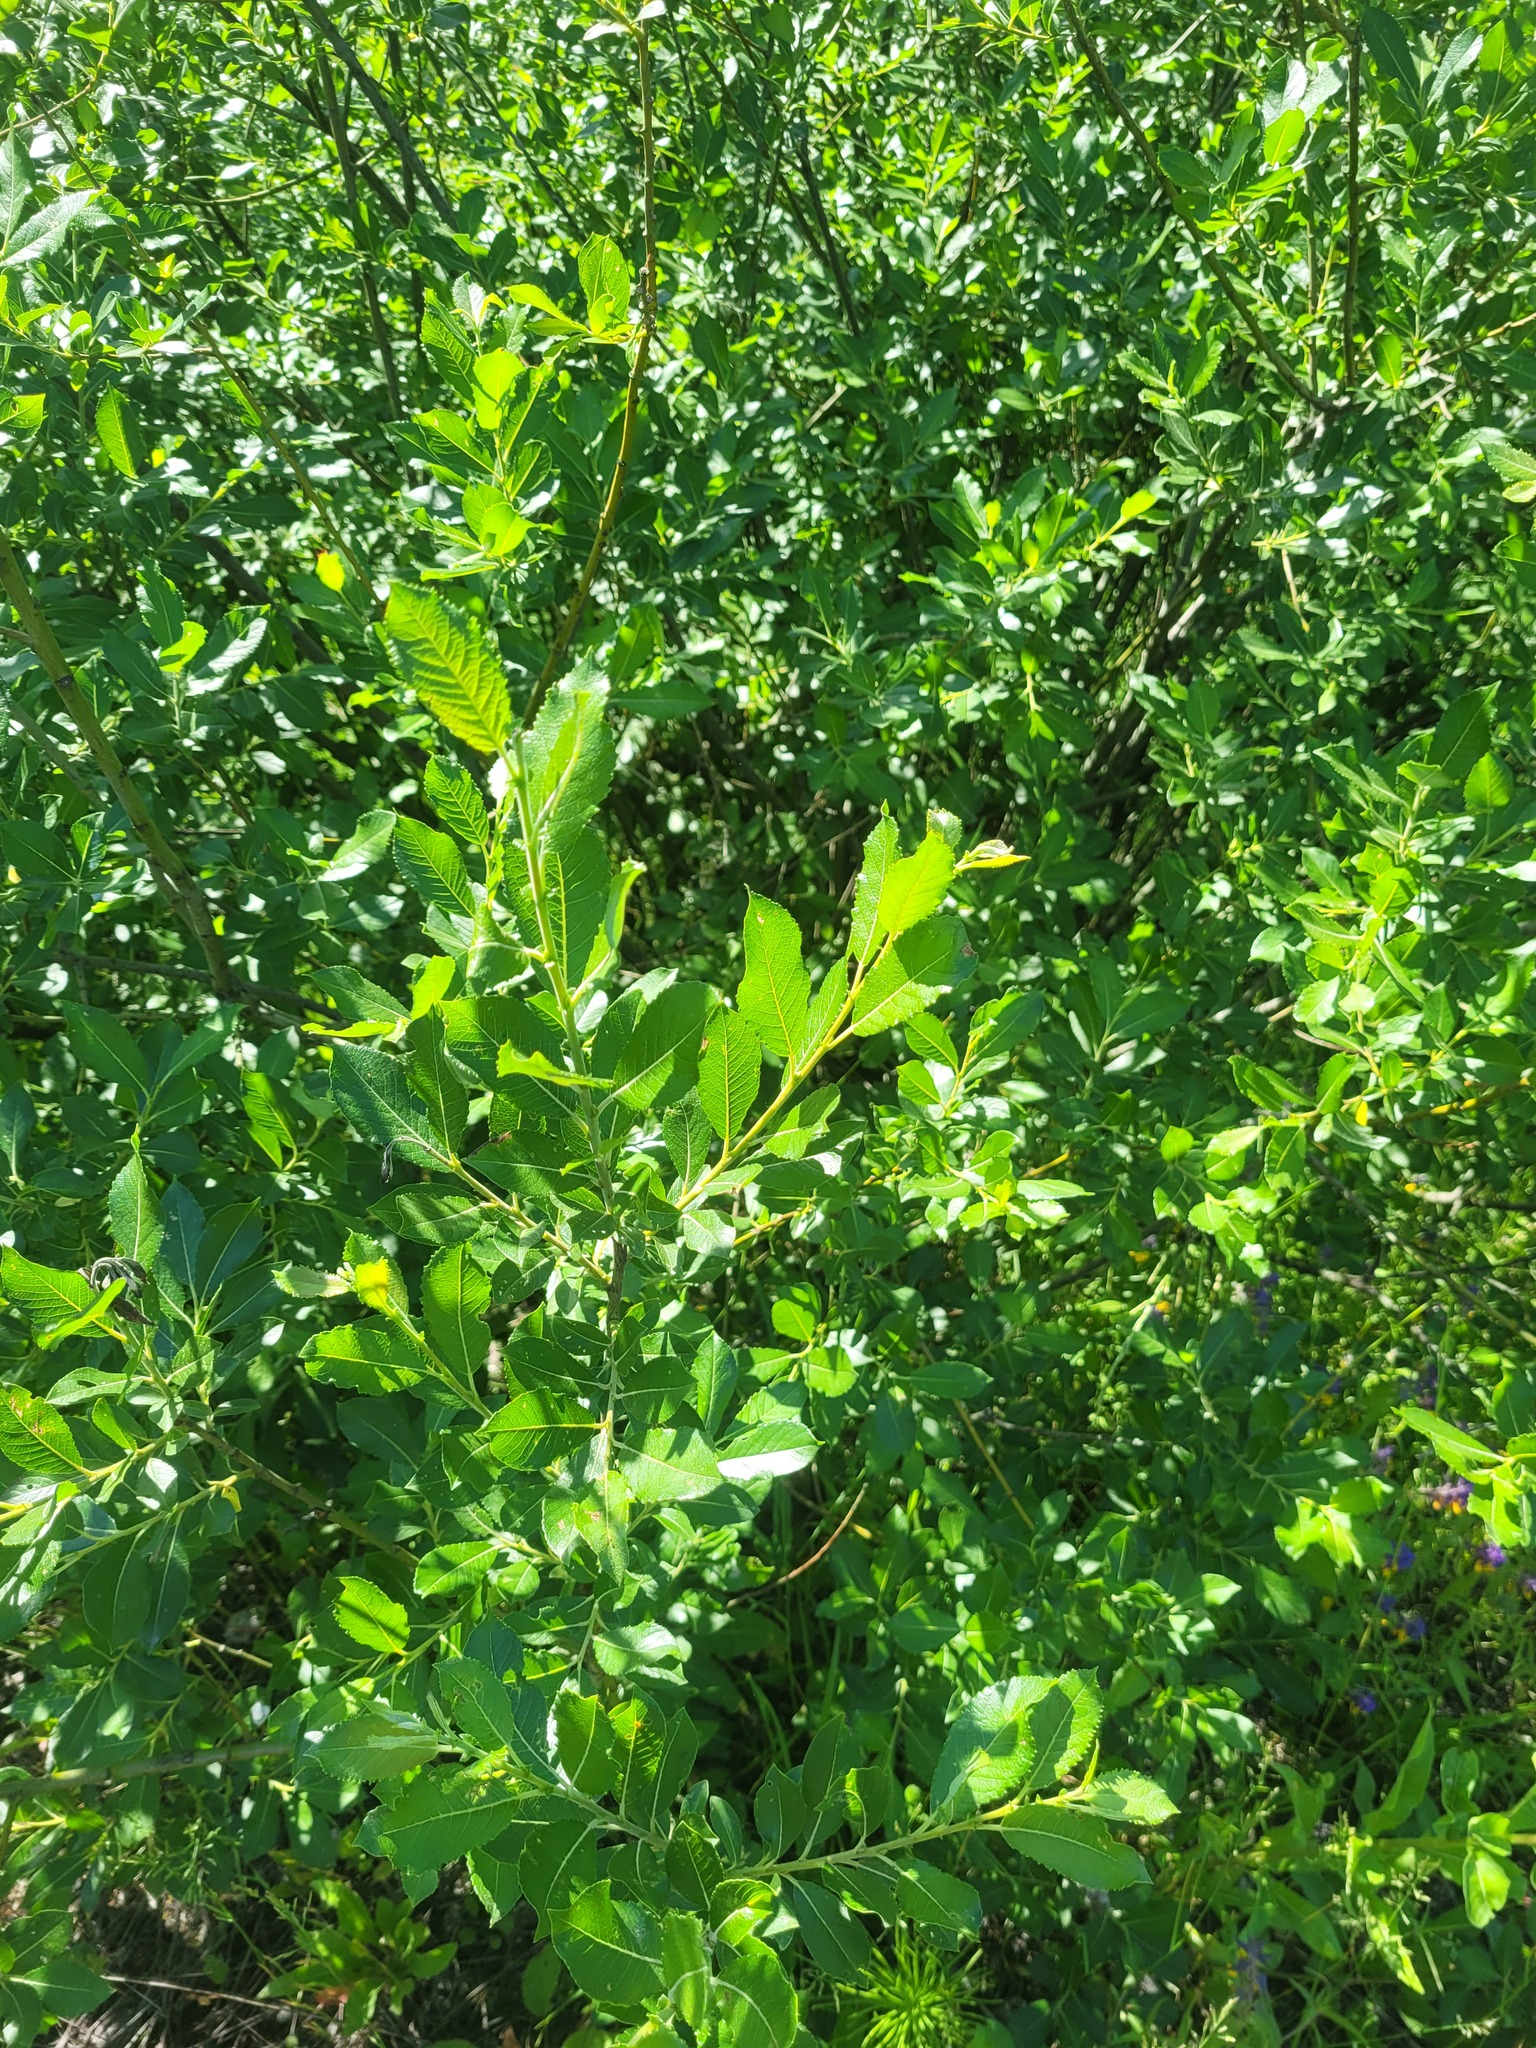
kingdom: Plantae
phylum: Tracheophyta
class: Magnoliopsida
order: Malpighiales
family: Salicaceae
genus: Salix
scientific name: Salix myrsinifolia
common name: Dark-leaved willow
